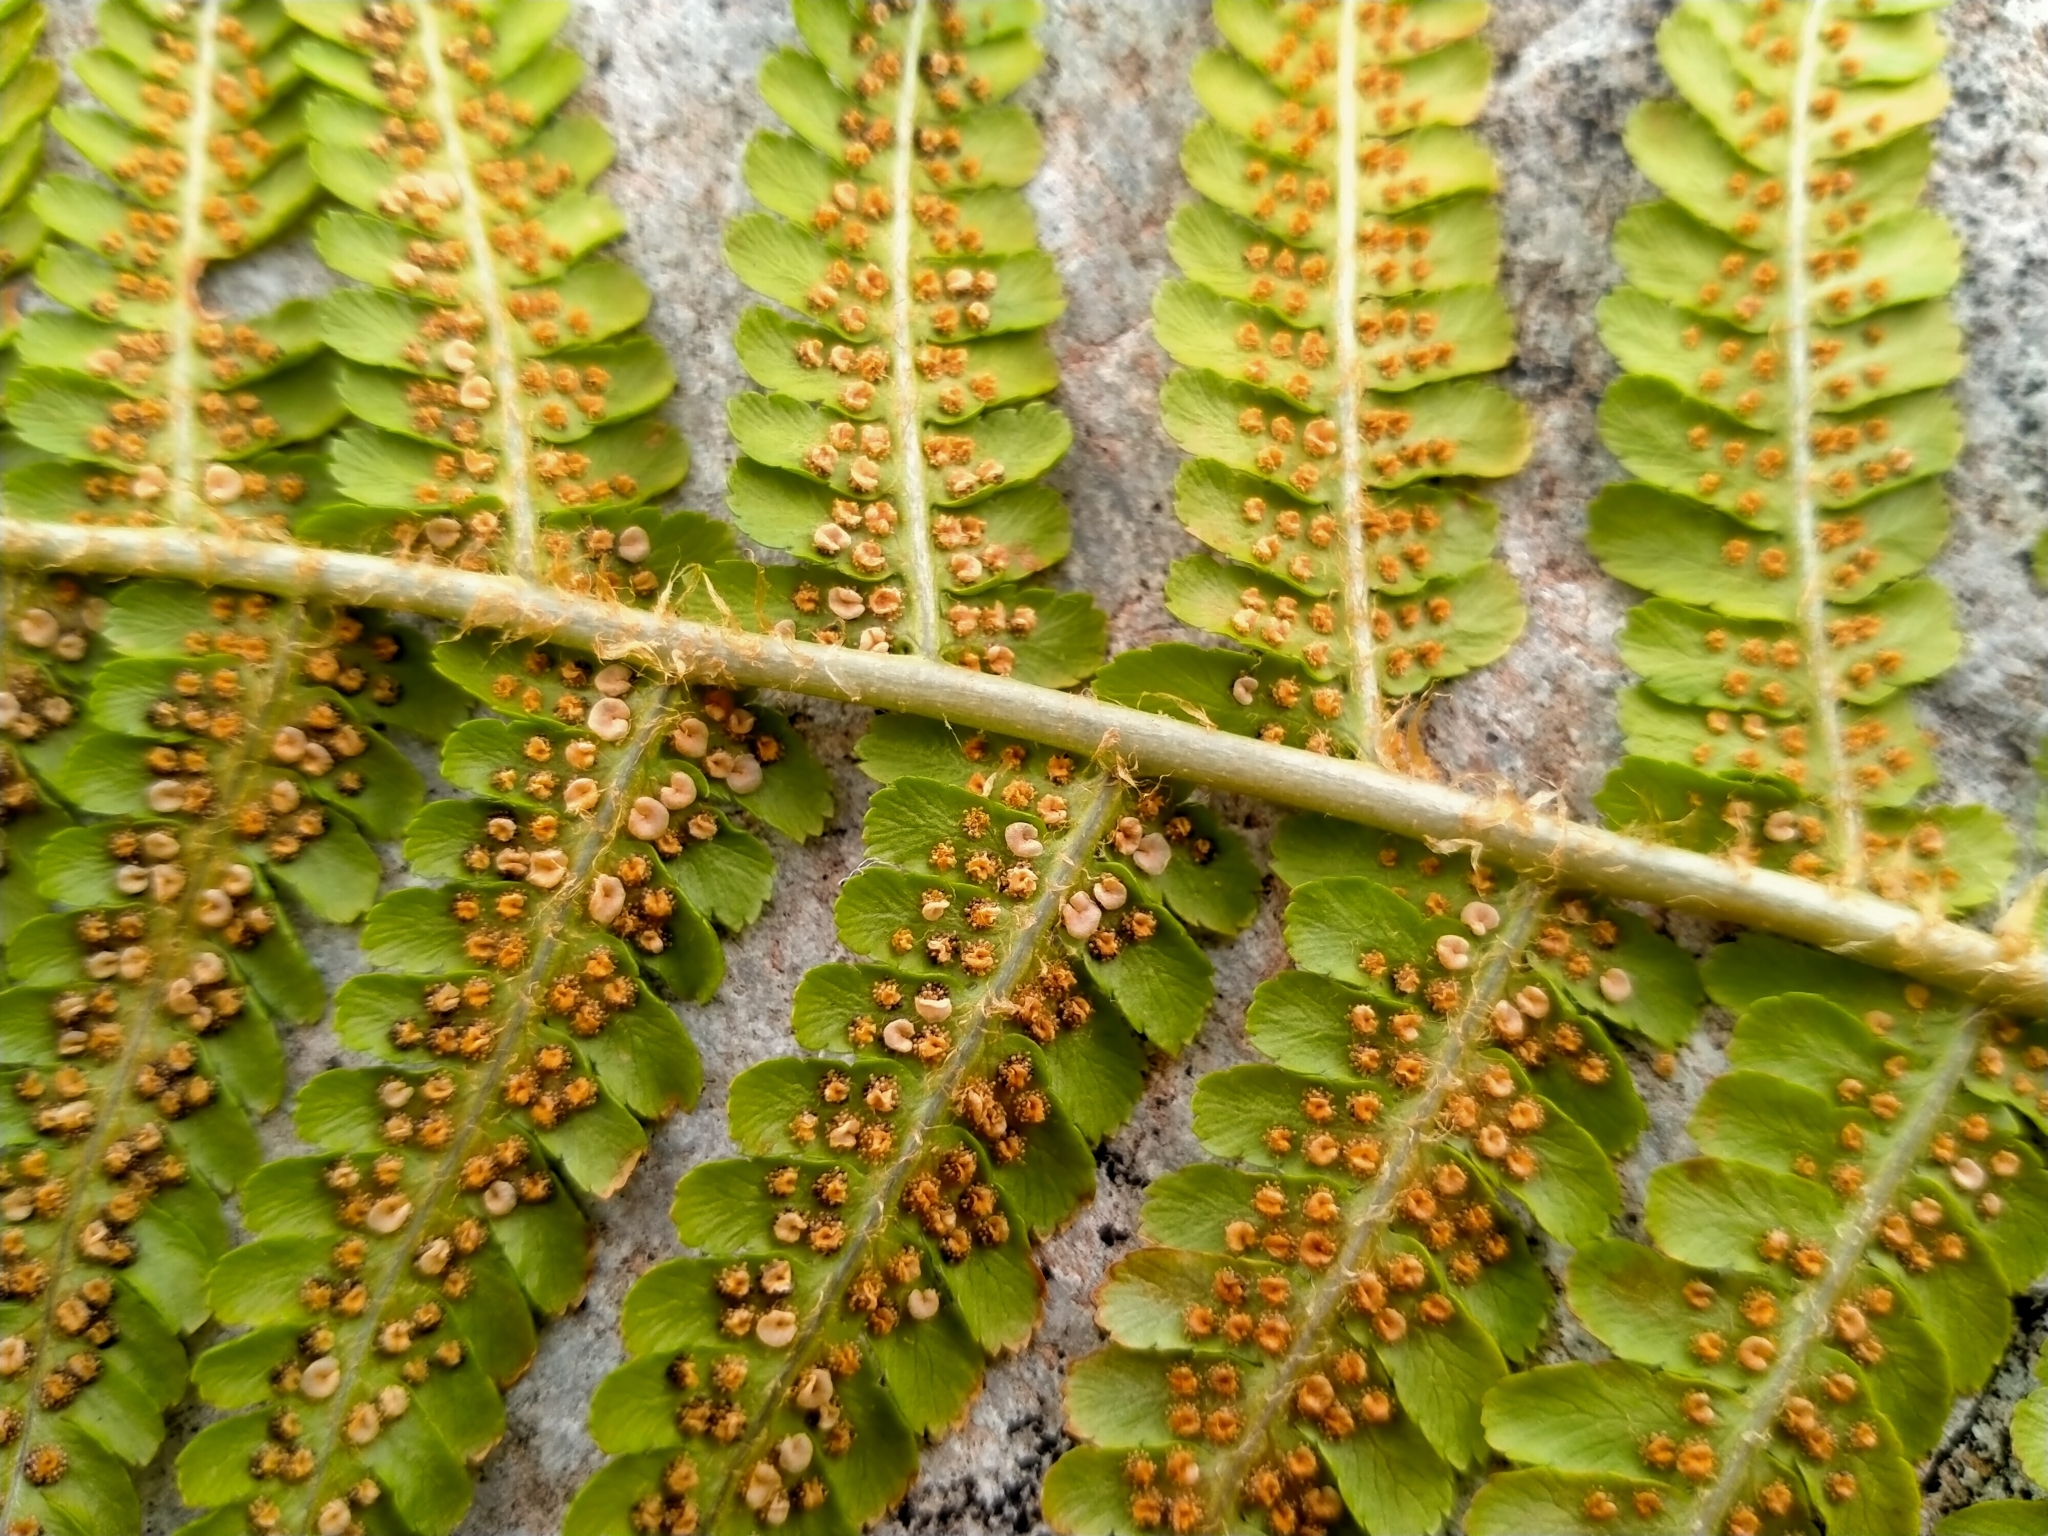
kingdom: Plantae
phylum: Tracheophyta
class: Polypodiopsida
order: Polypodiales
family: Dryopteridaceae
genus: Dryopteris
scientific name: Dryopteris filix-mas
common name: Male fern
